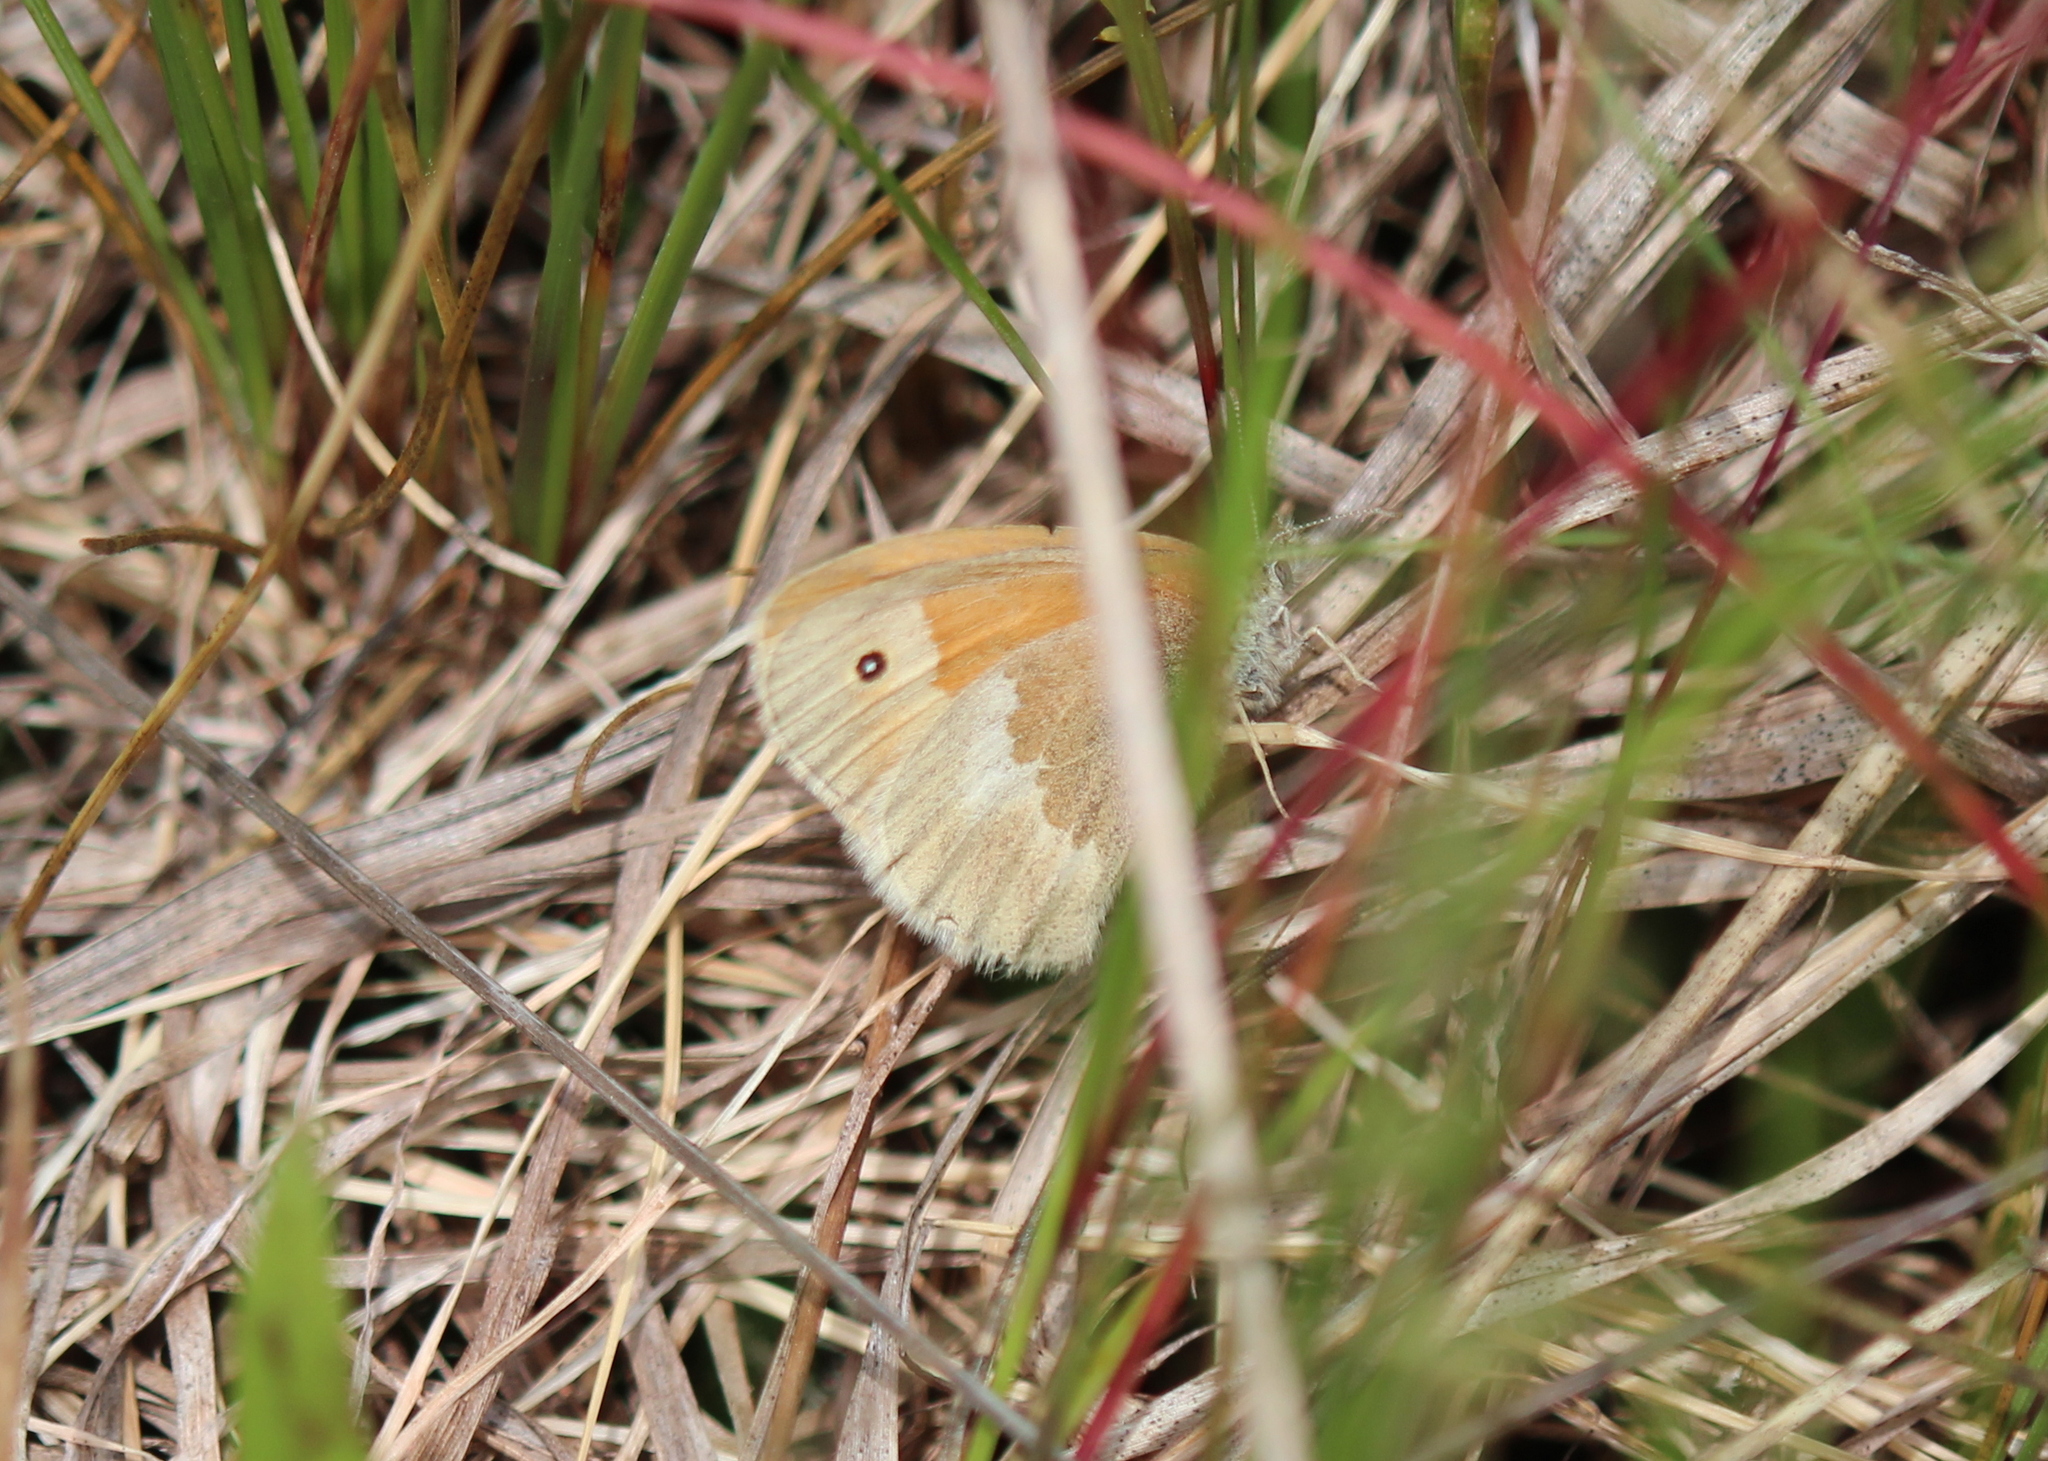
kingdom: Animalia
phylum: Arthropoda
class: Insecta
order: Lepidoptera
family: Nymphalidae
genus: Coenonympha
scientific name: Coenonympha california
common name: Common ringlet
